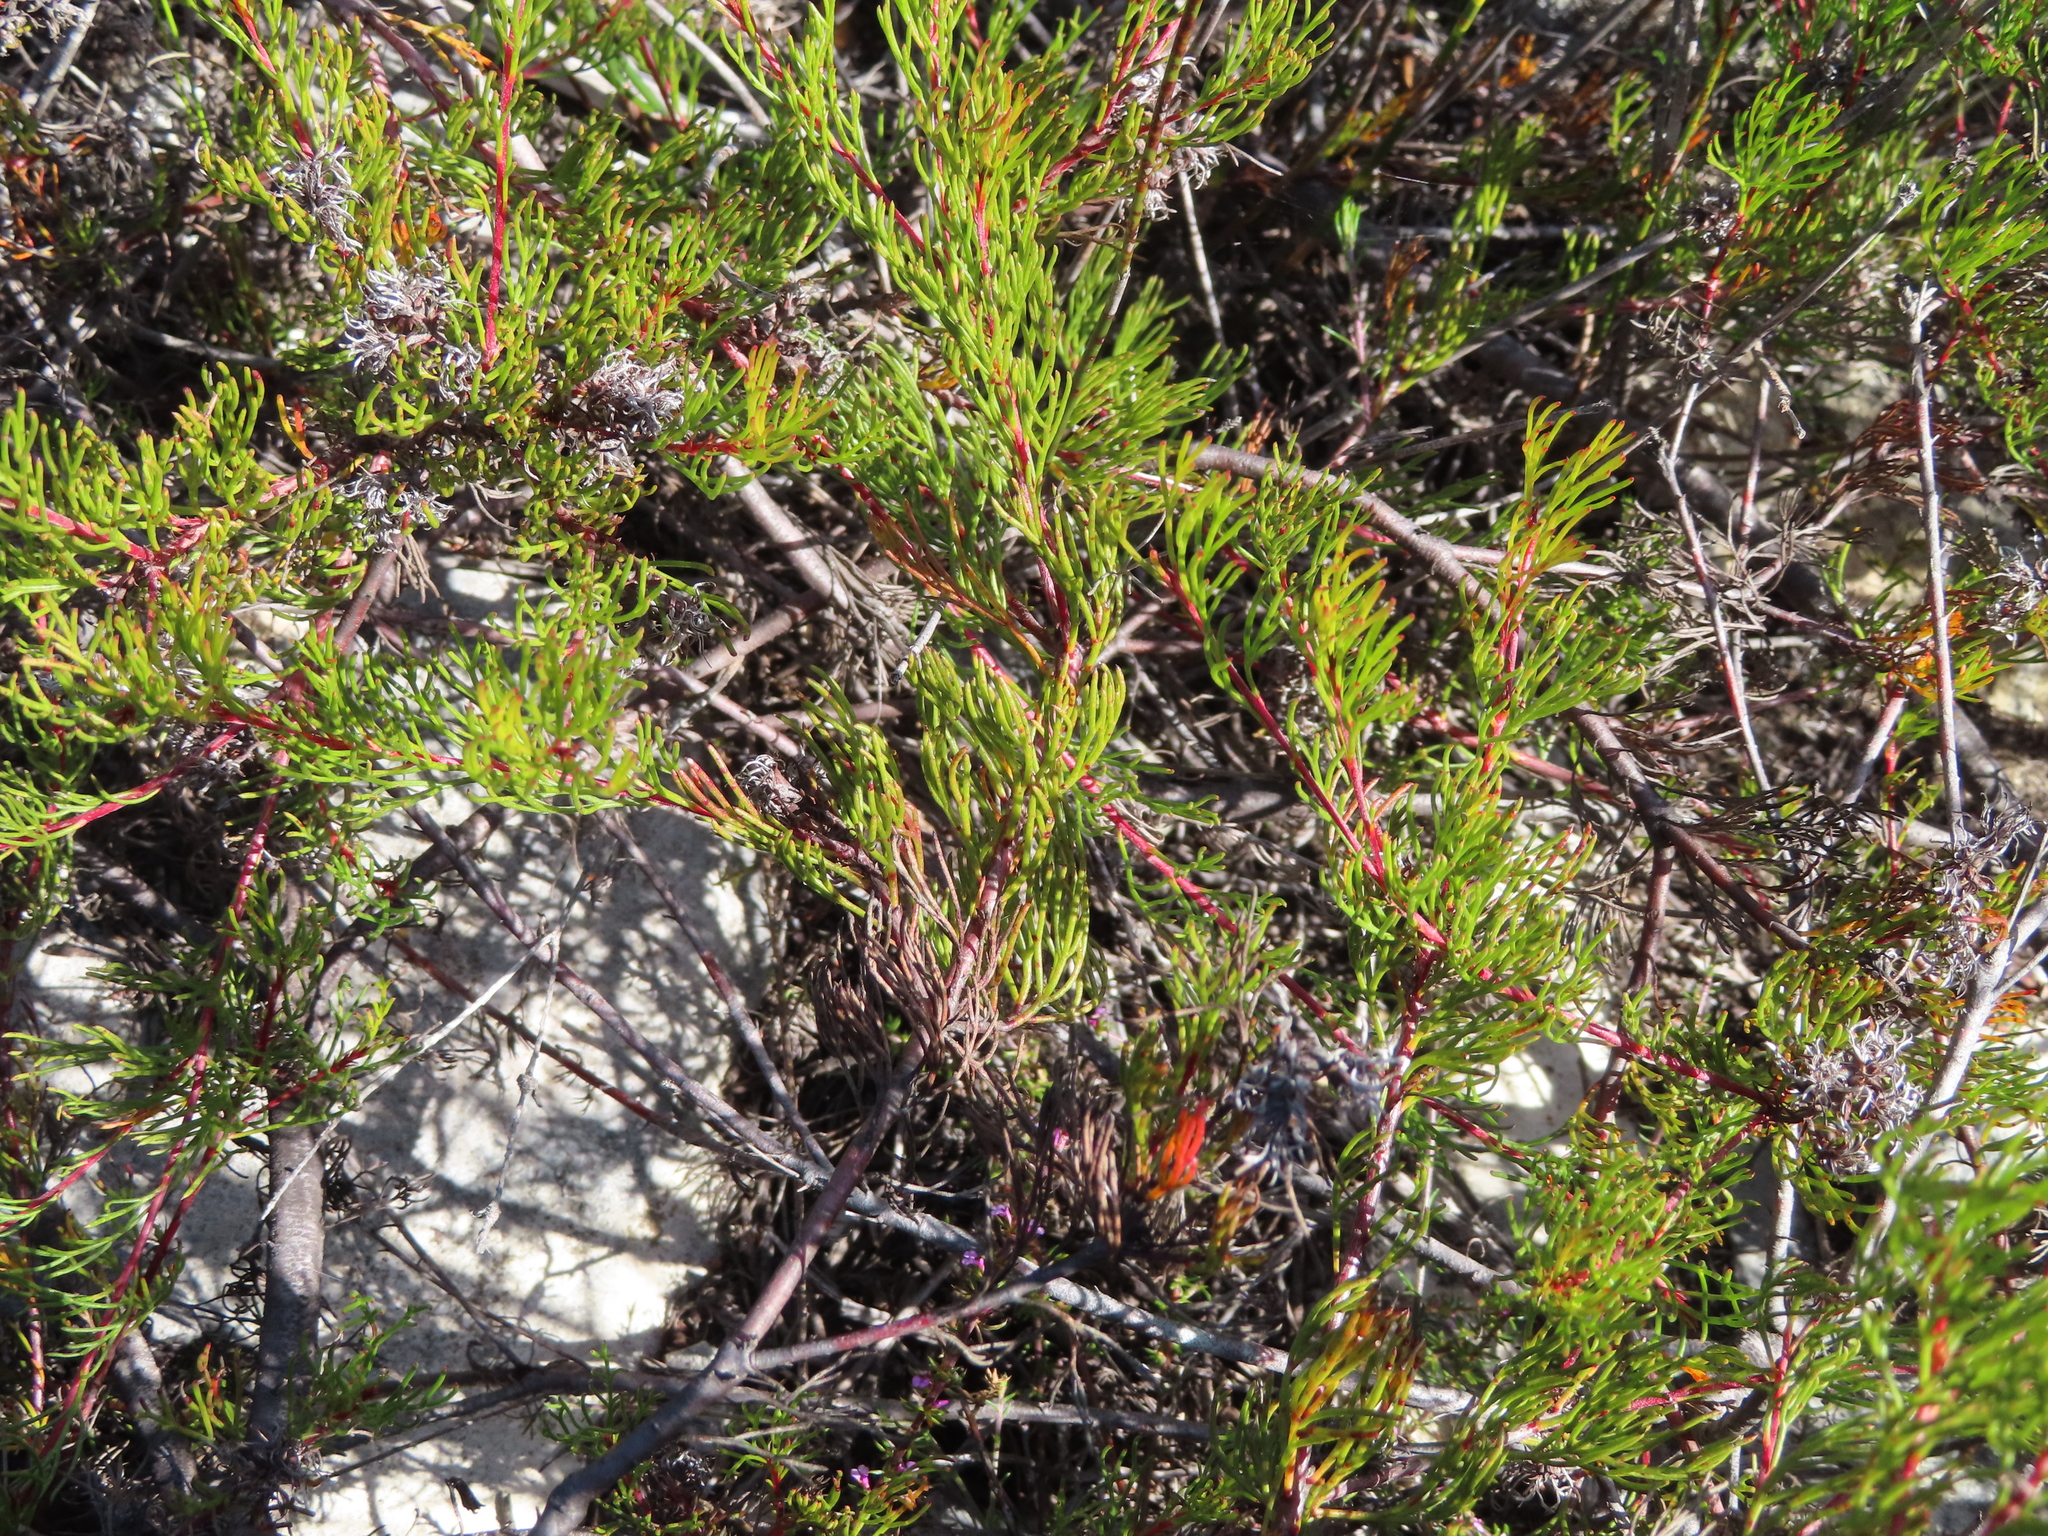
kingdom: Plantae
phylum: Tracheophyta
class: Magnoliopsida
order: Proteales
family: Proteaceae
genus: Serruria
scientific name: Serruria bolusii
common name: Agulhas spiderhead
